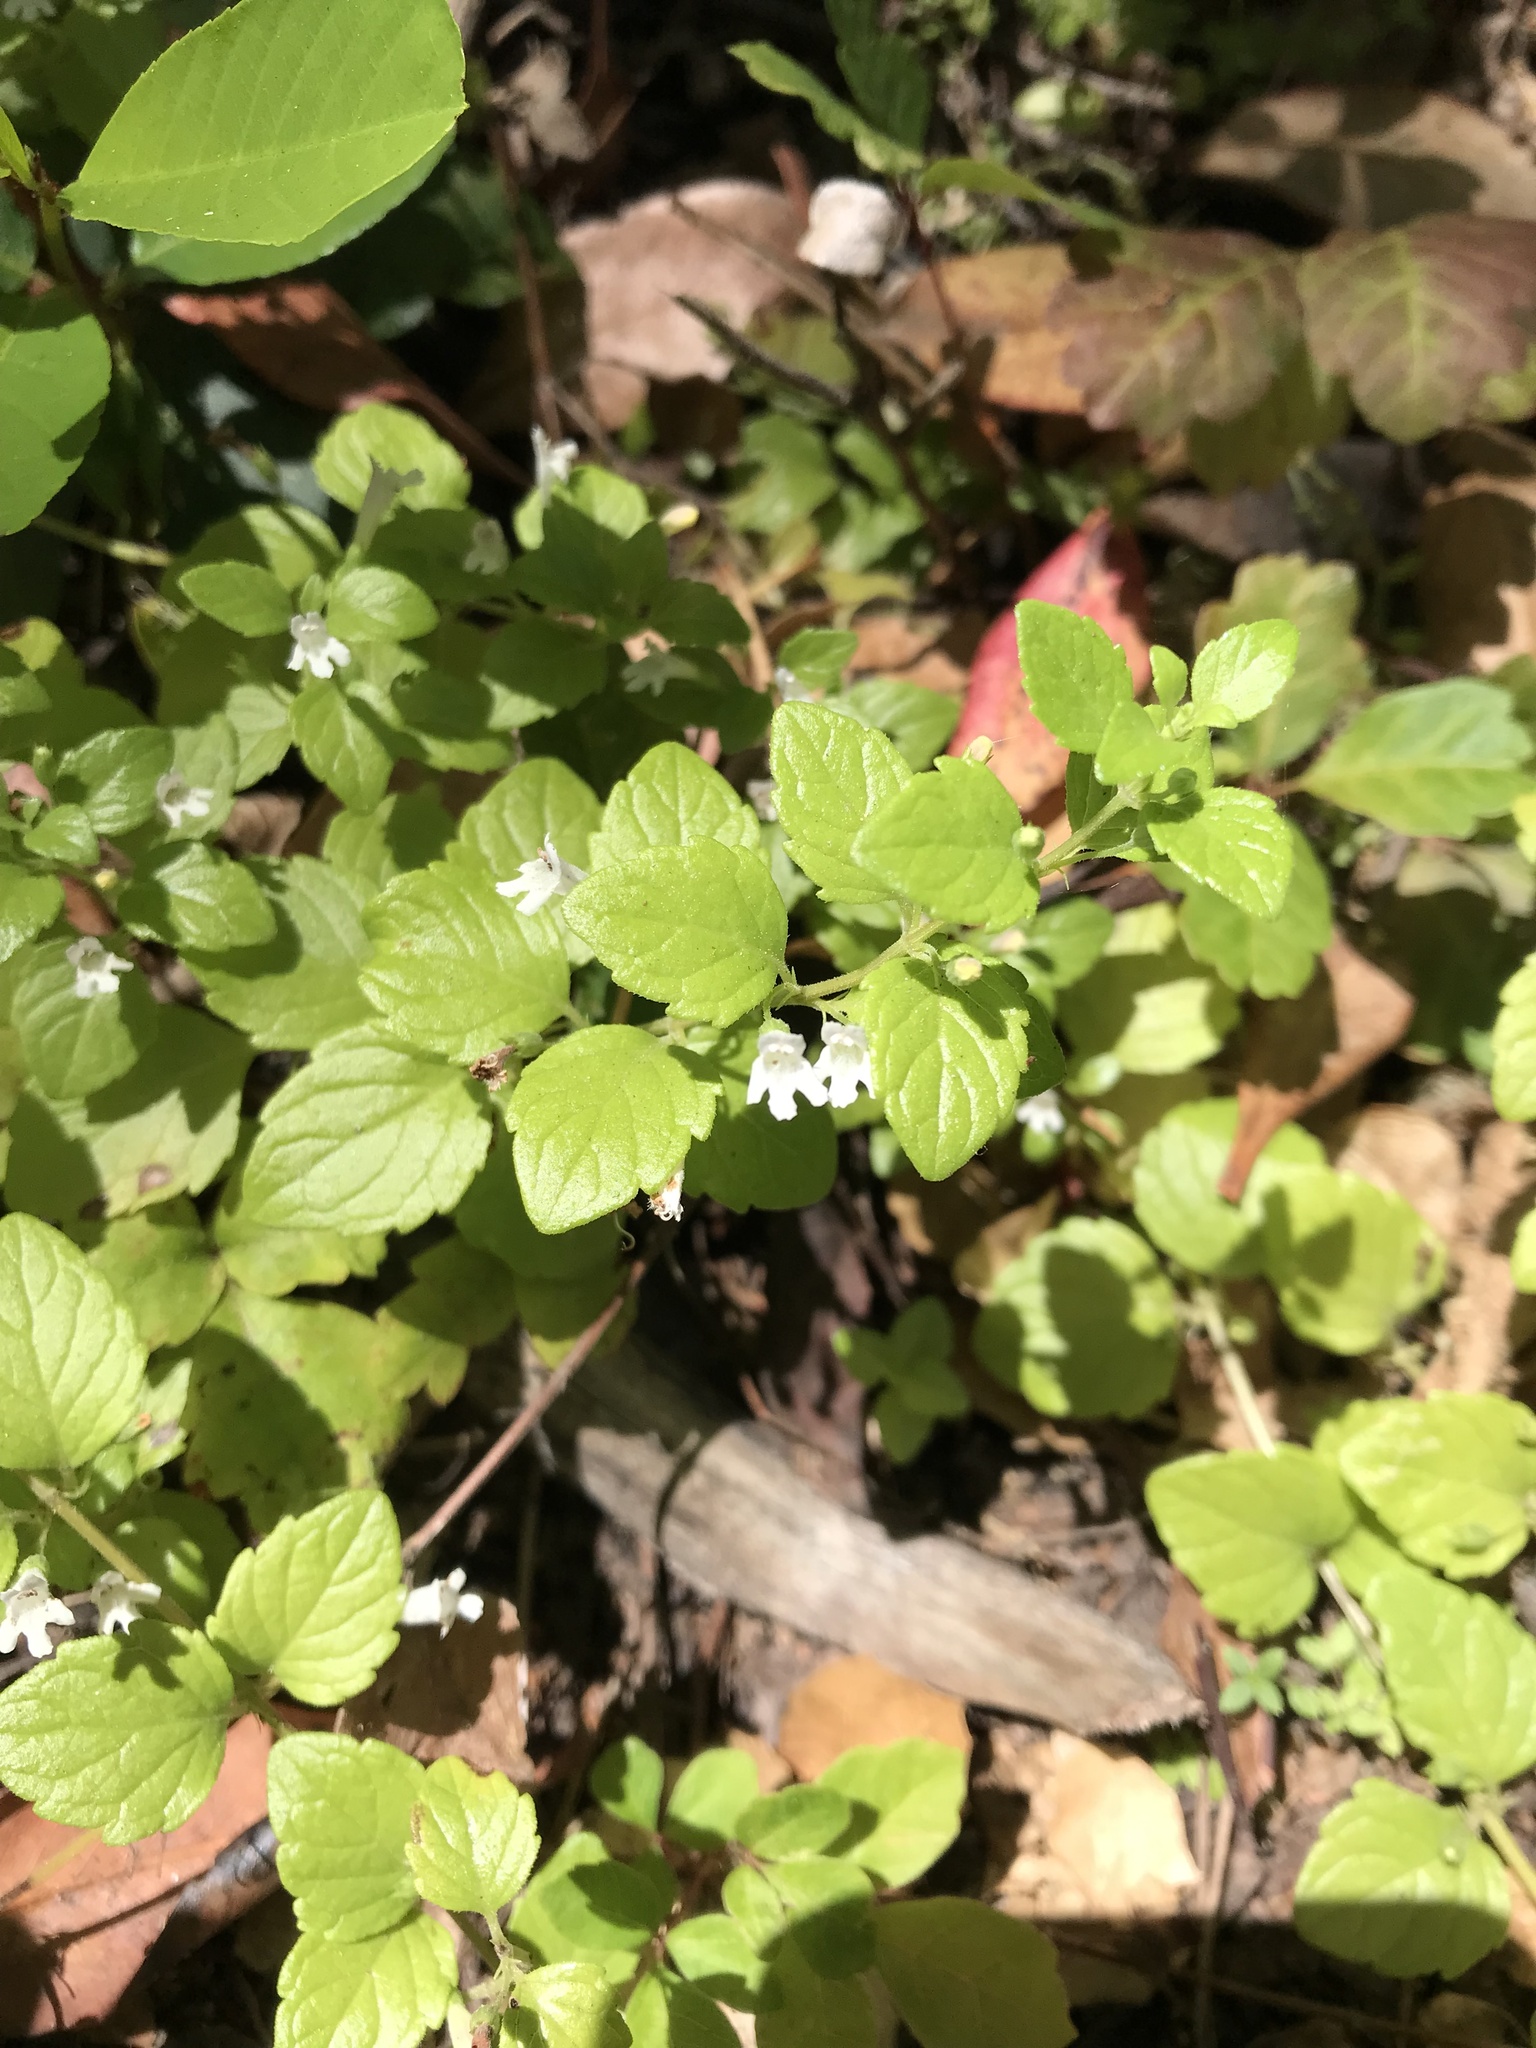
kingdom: Plantae
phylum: Tracheophyta
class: Magnoliopsida
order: Lamiales
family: Lamiaceae
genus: Micromeria
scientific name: Micromeria douglasii
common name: Yerba buena
